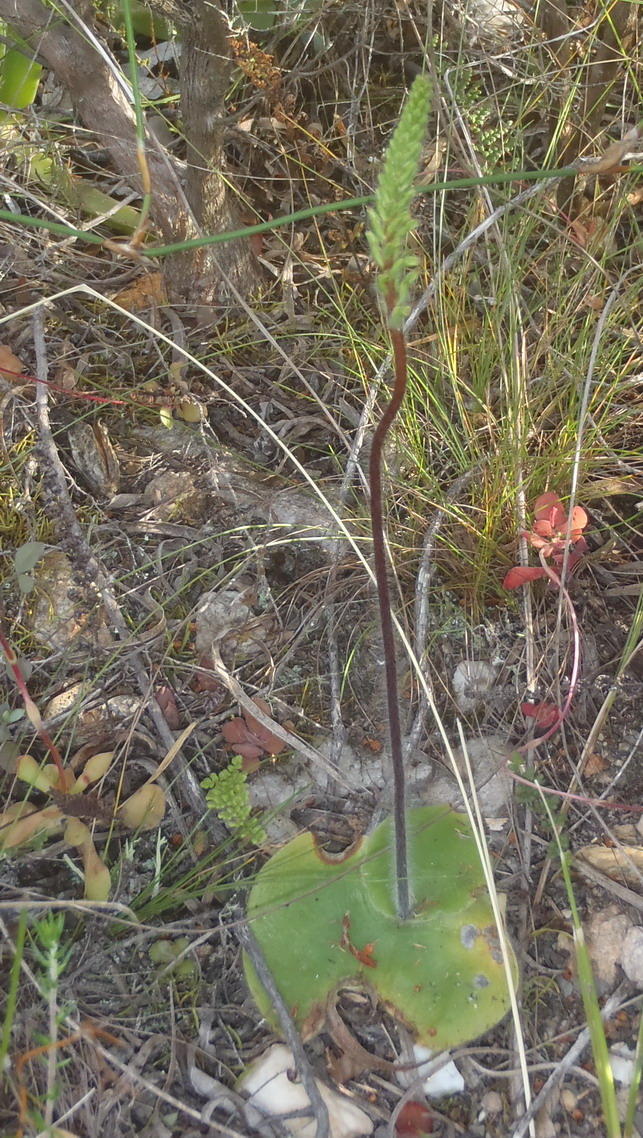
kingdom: Plantae
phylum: Tracheophyta
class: Liliopsida
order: Asparagales
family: Orchidaceae
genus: Holothrix
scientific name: Holothrix villosa
